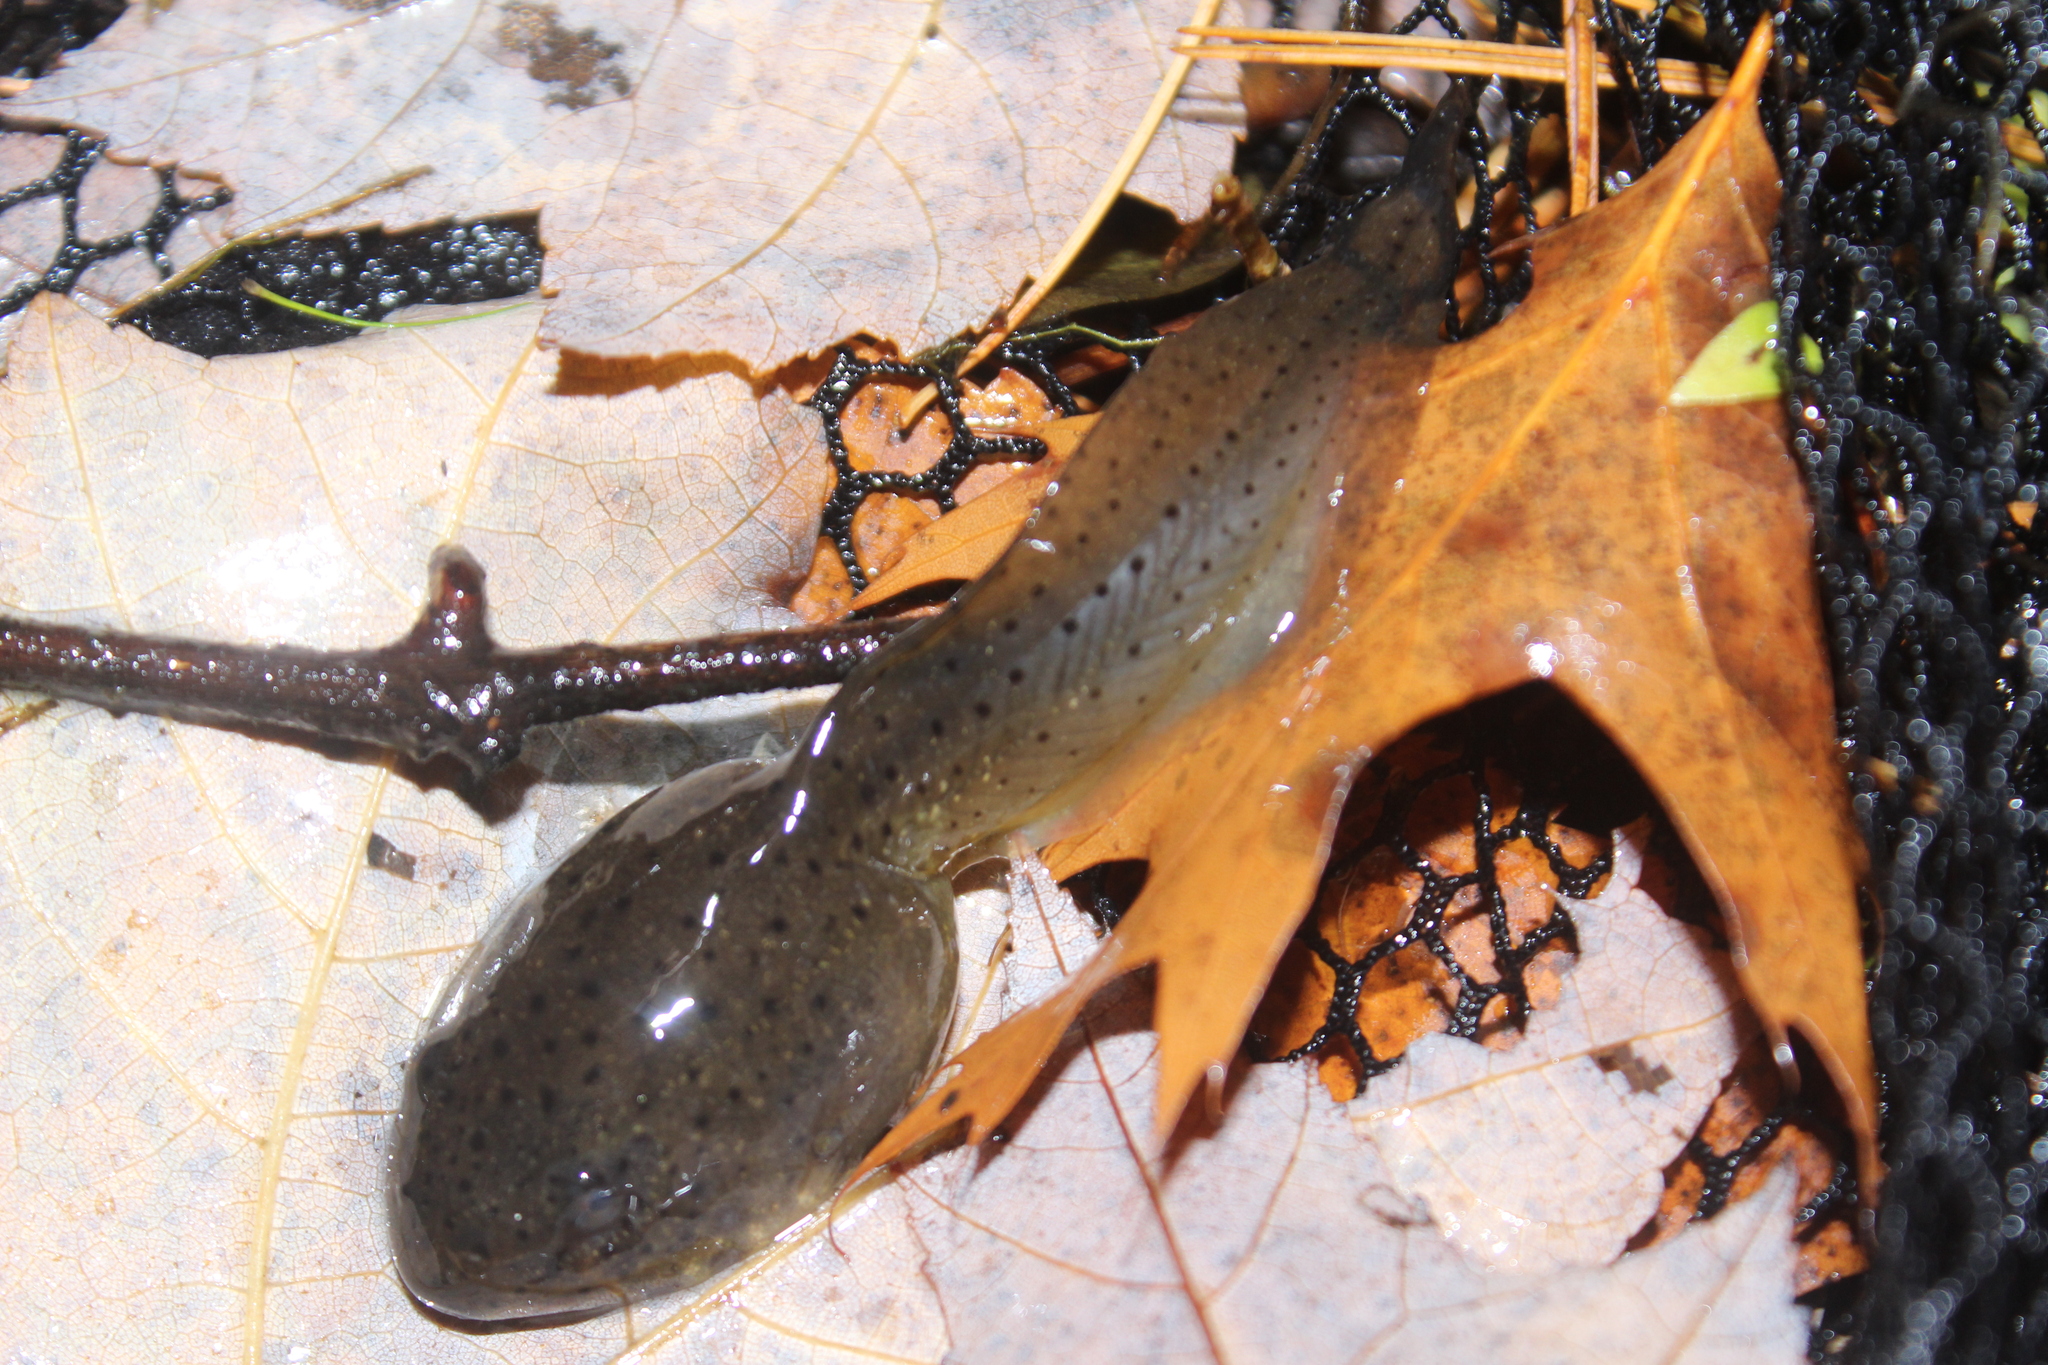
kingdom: Animalia
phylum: Chordata
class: Amphibia
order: Anura
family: Ranidae
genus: Lithobates
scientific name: Lithobates catesbeianus
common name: American bullfrog
